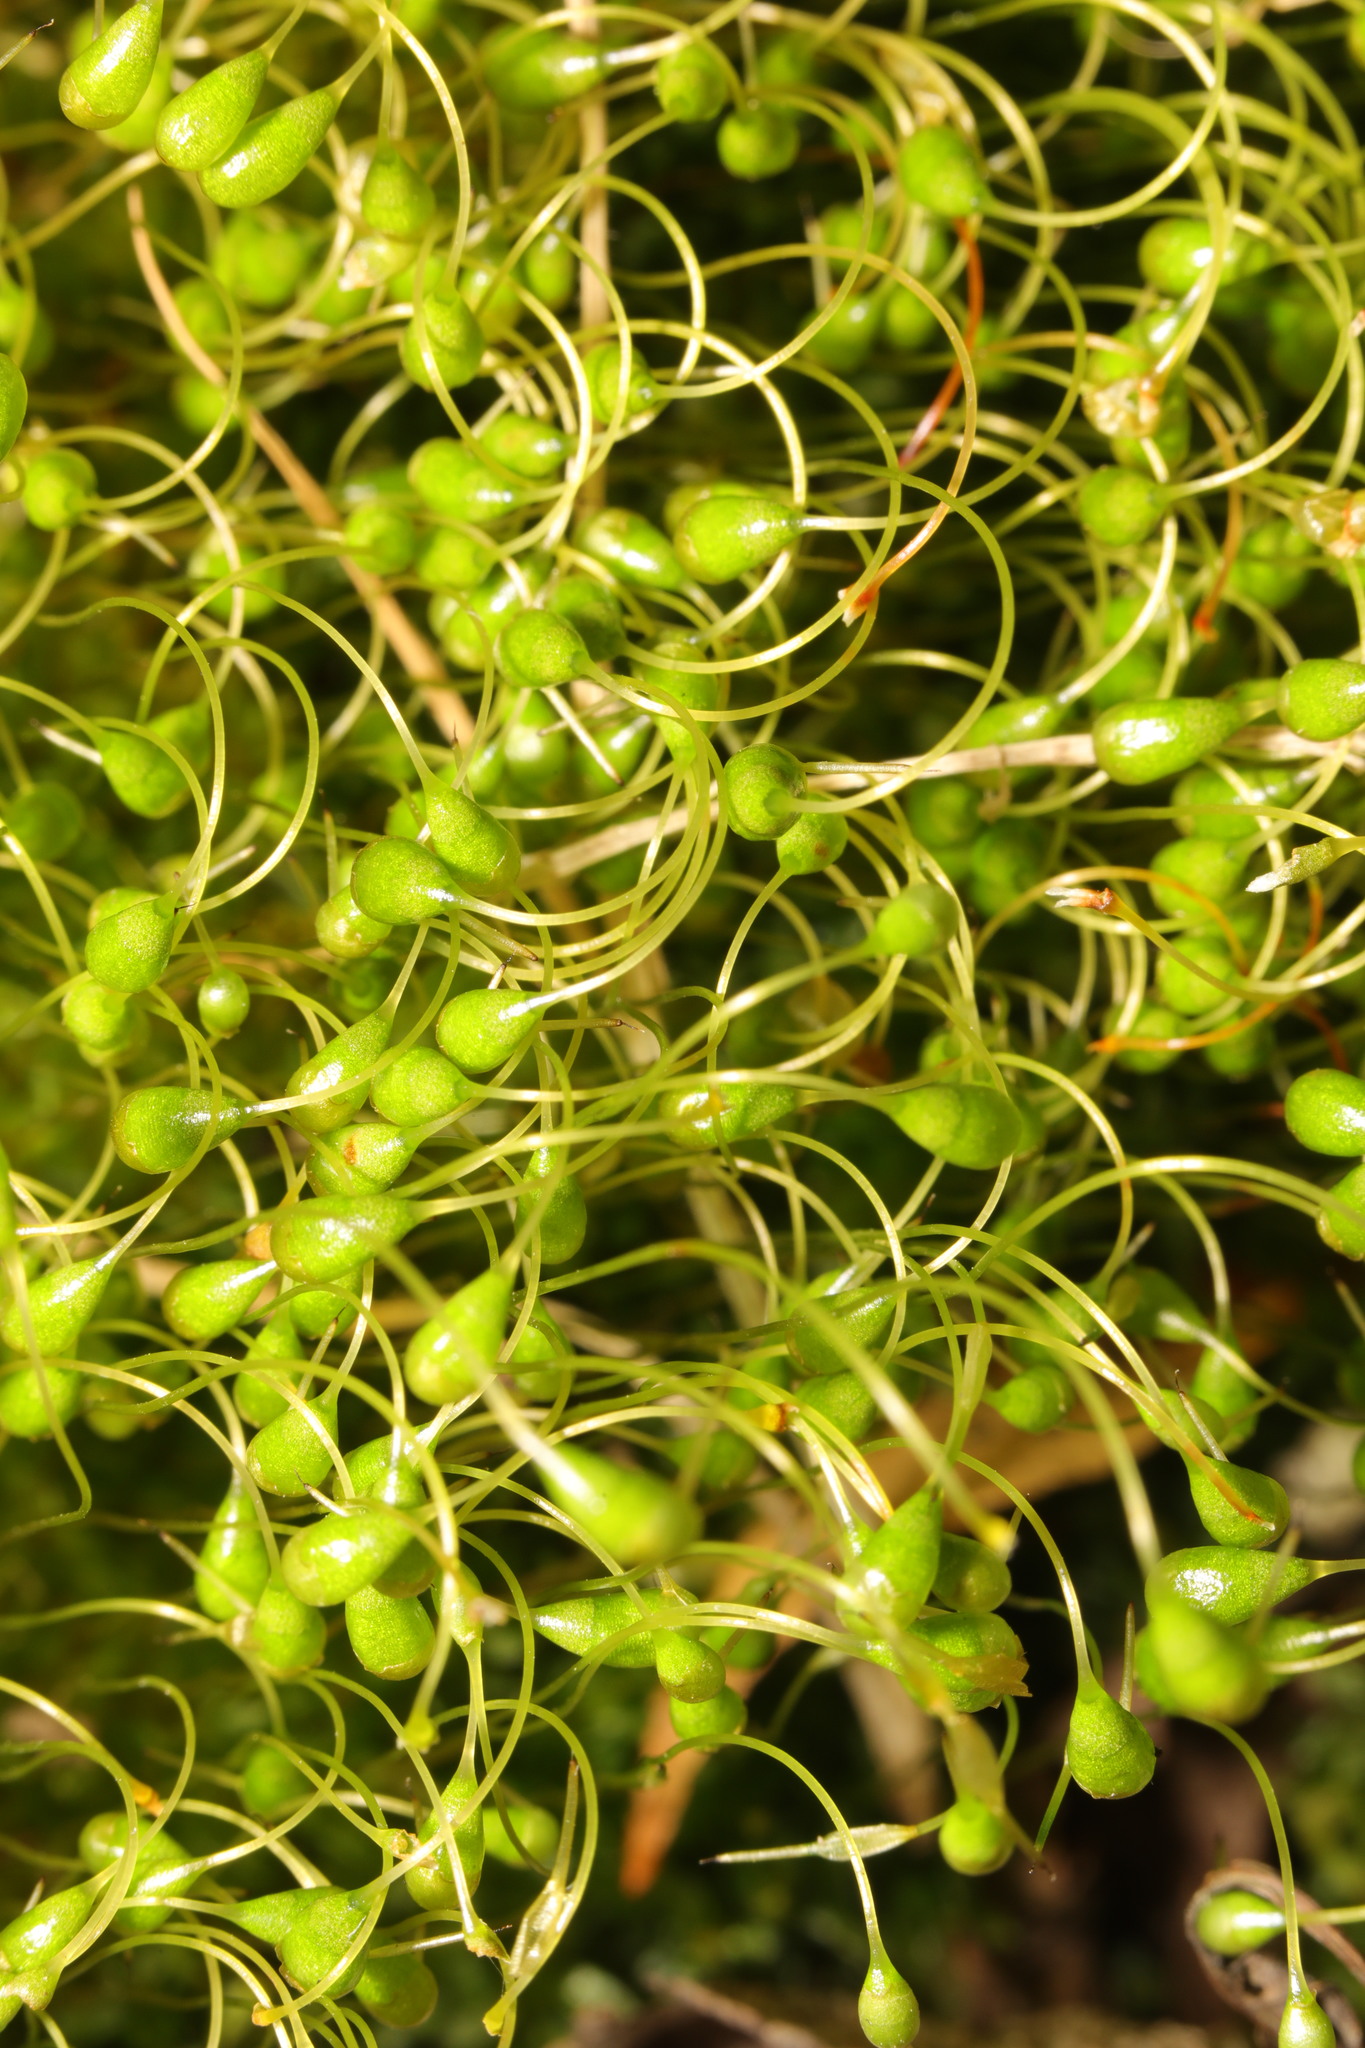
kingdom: Plantae
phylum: Bryophyta
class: Bryopsida
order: Funariales
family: Funariaceae
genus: Funaria
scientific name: Funaria hygrometrica
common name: Common cord moss
